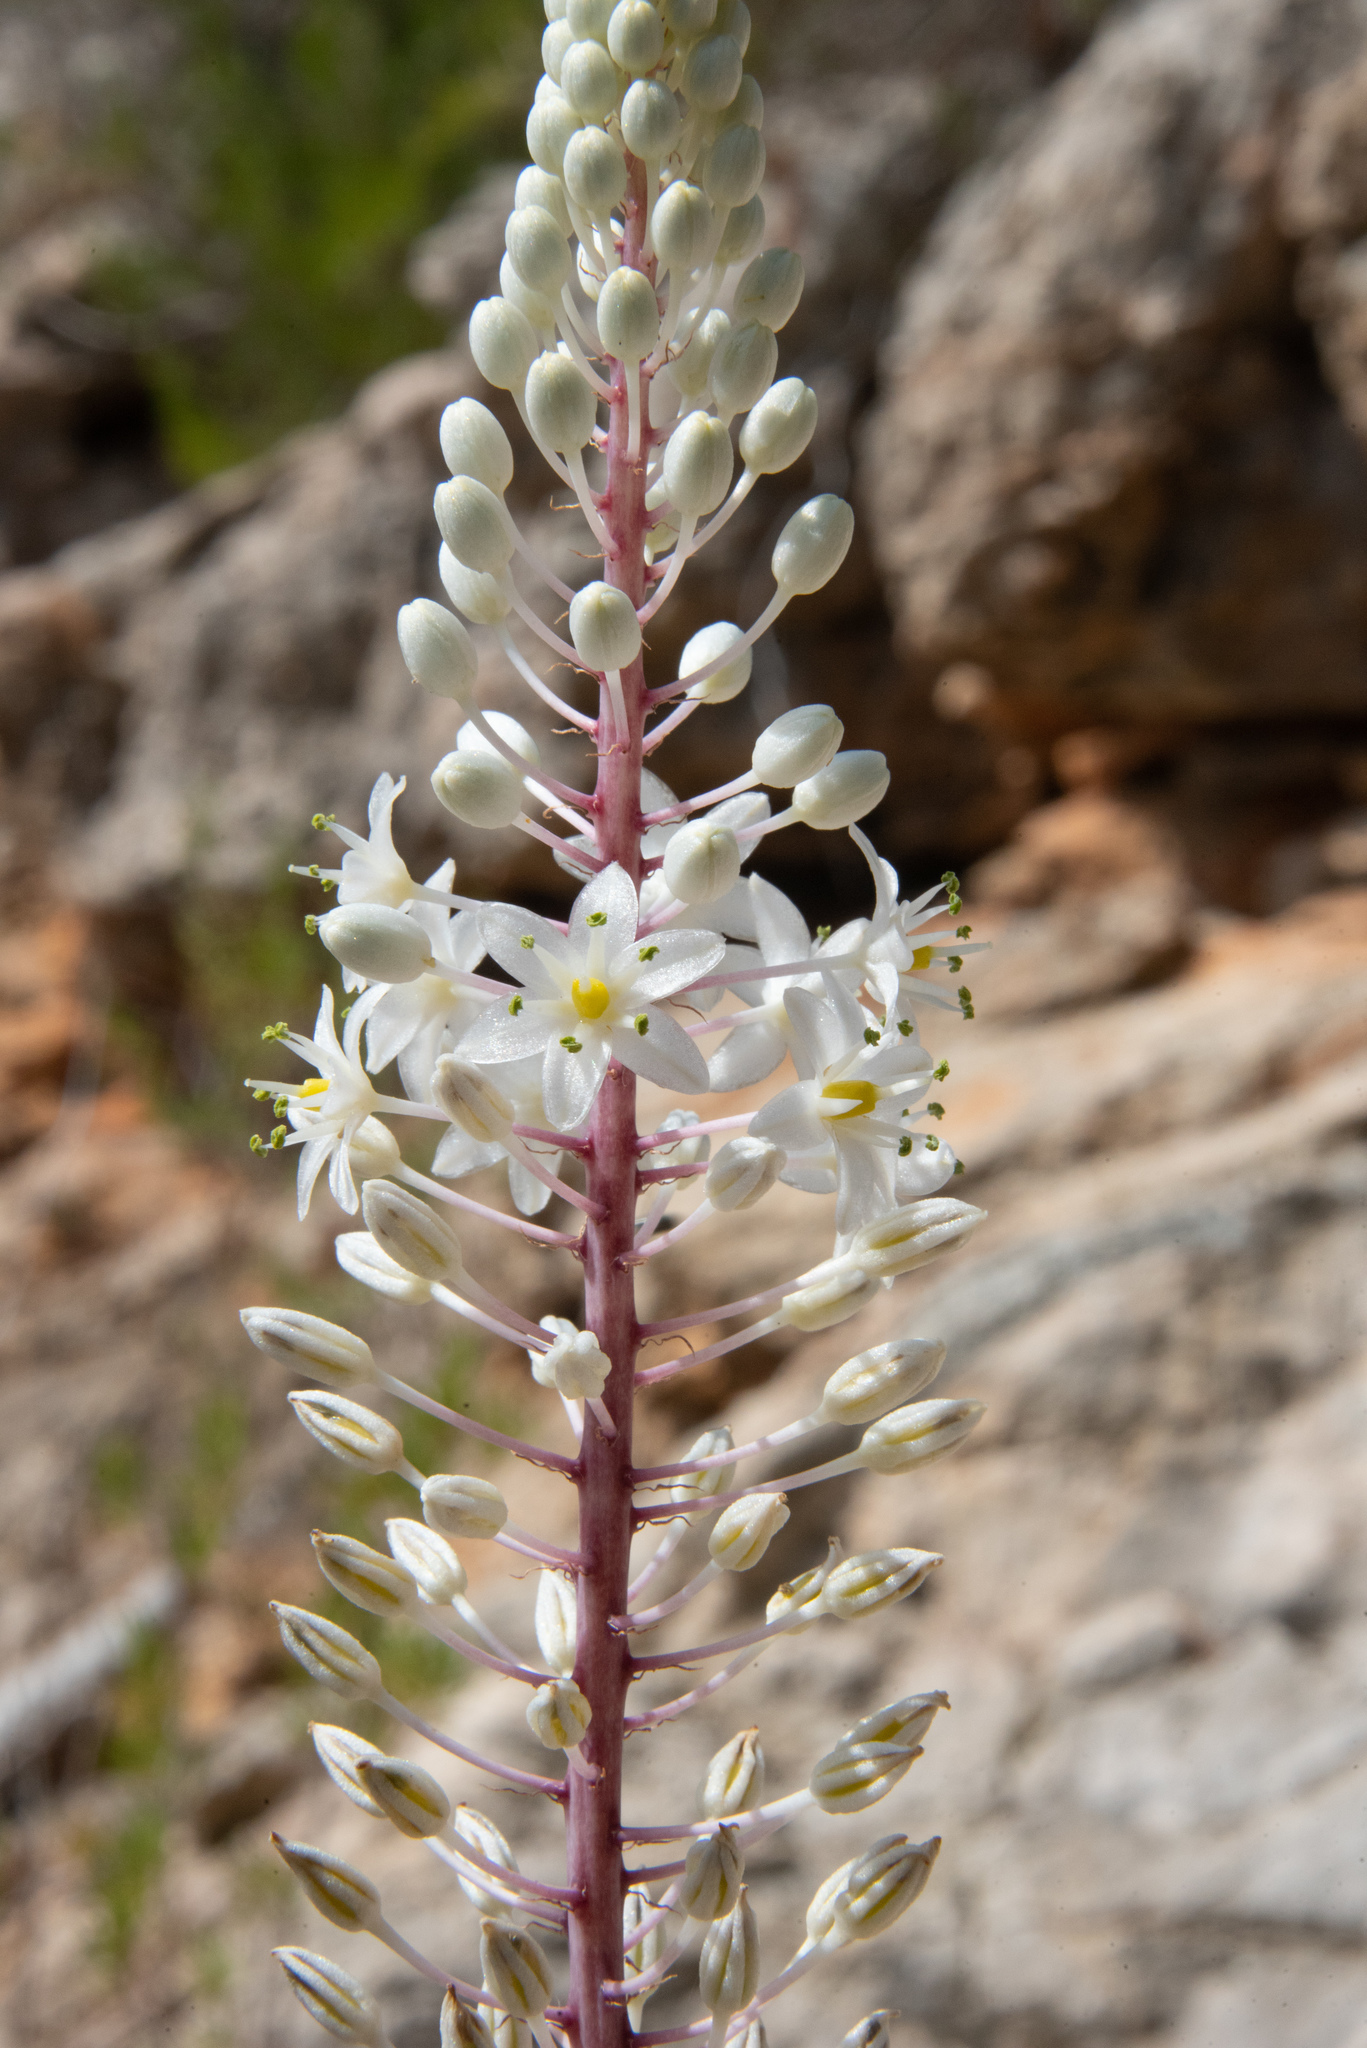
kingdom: Plantae
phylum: Tracheophyta
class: Liliopsida
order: Asparagales
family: Asparagaceae
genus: Drimia
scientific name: Drimia maritima
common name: Maritime squill
